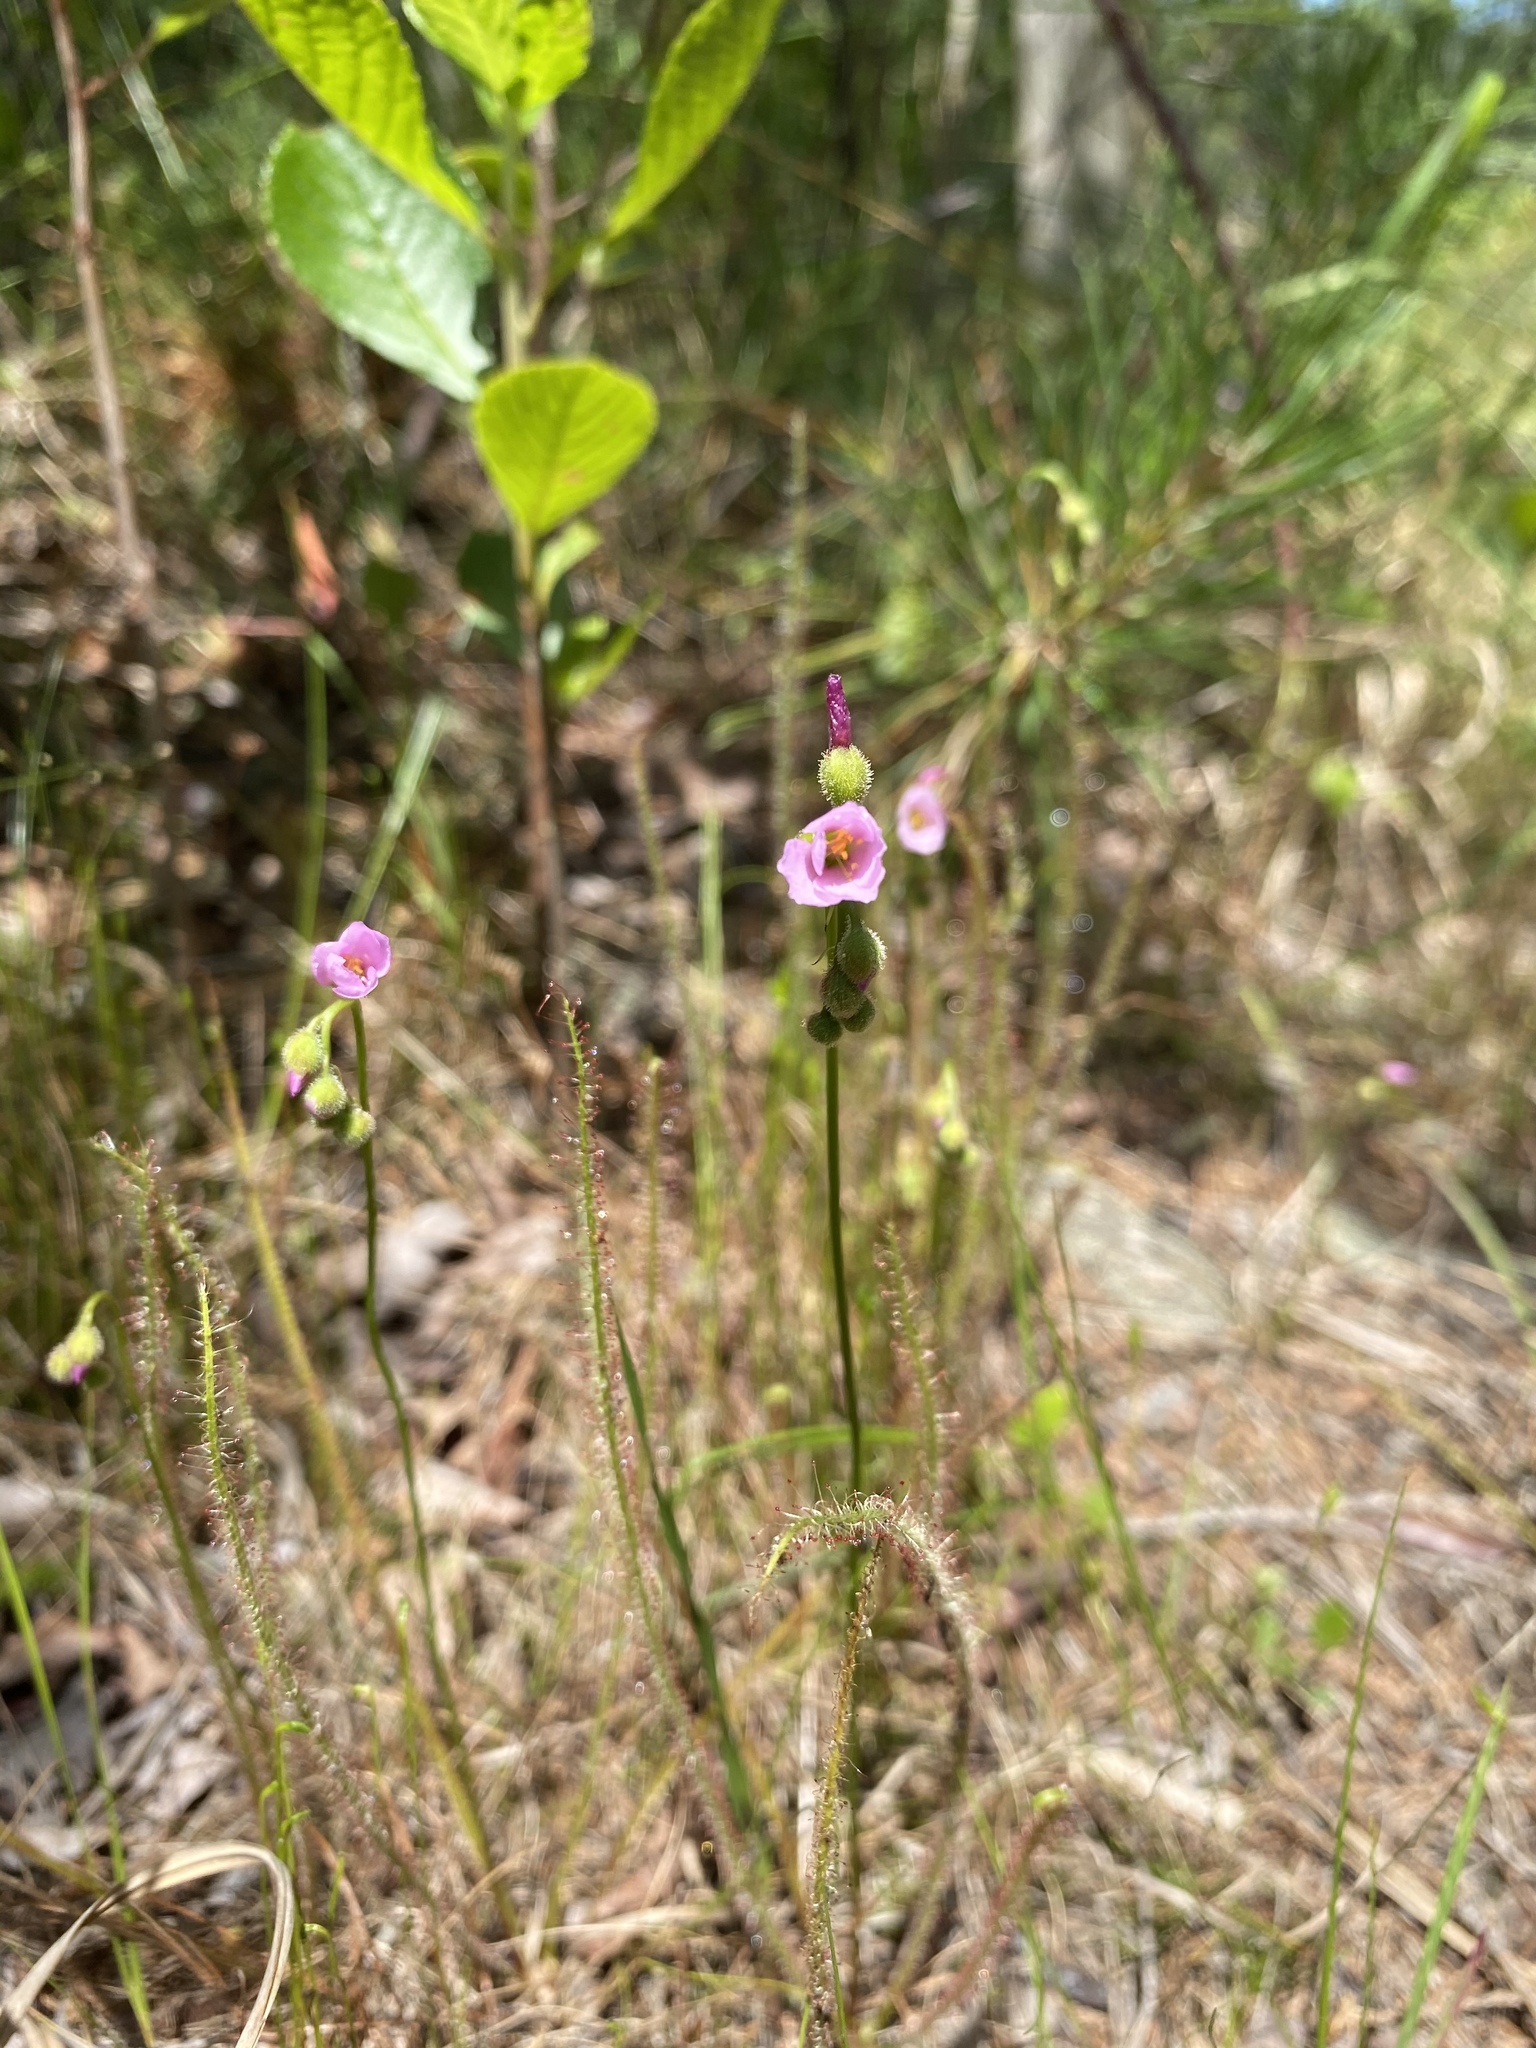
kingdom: Plantae
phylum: Tracheophyta
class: Magnoliopsida
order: Caryophyllales
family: Droseraceae
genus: Drosera
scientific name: Drosera filiformis
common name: Dew-thread
